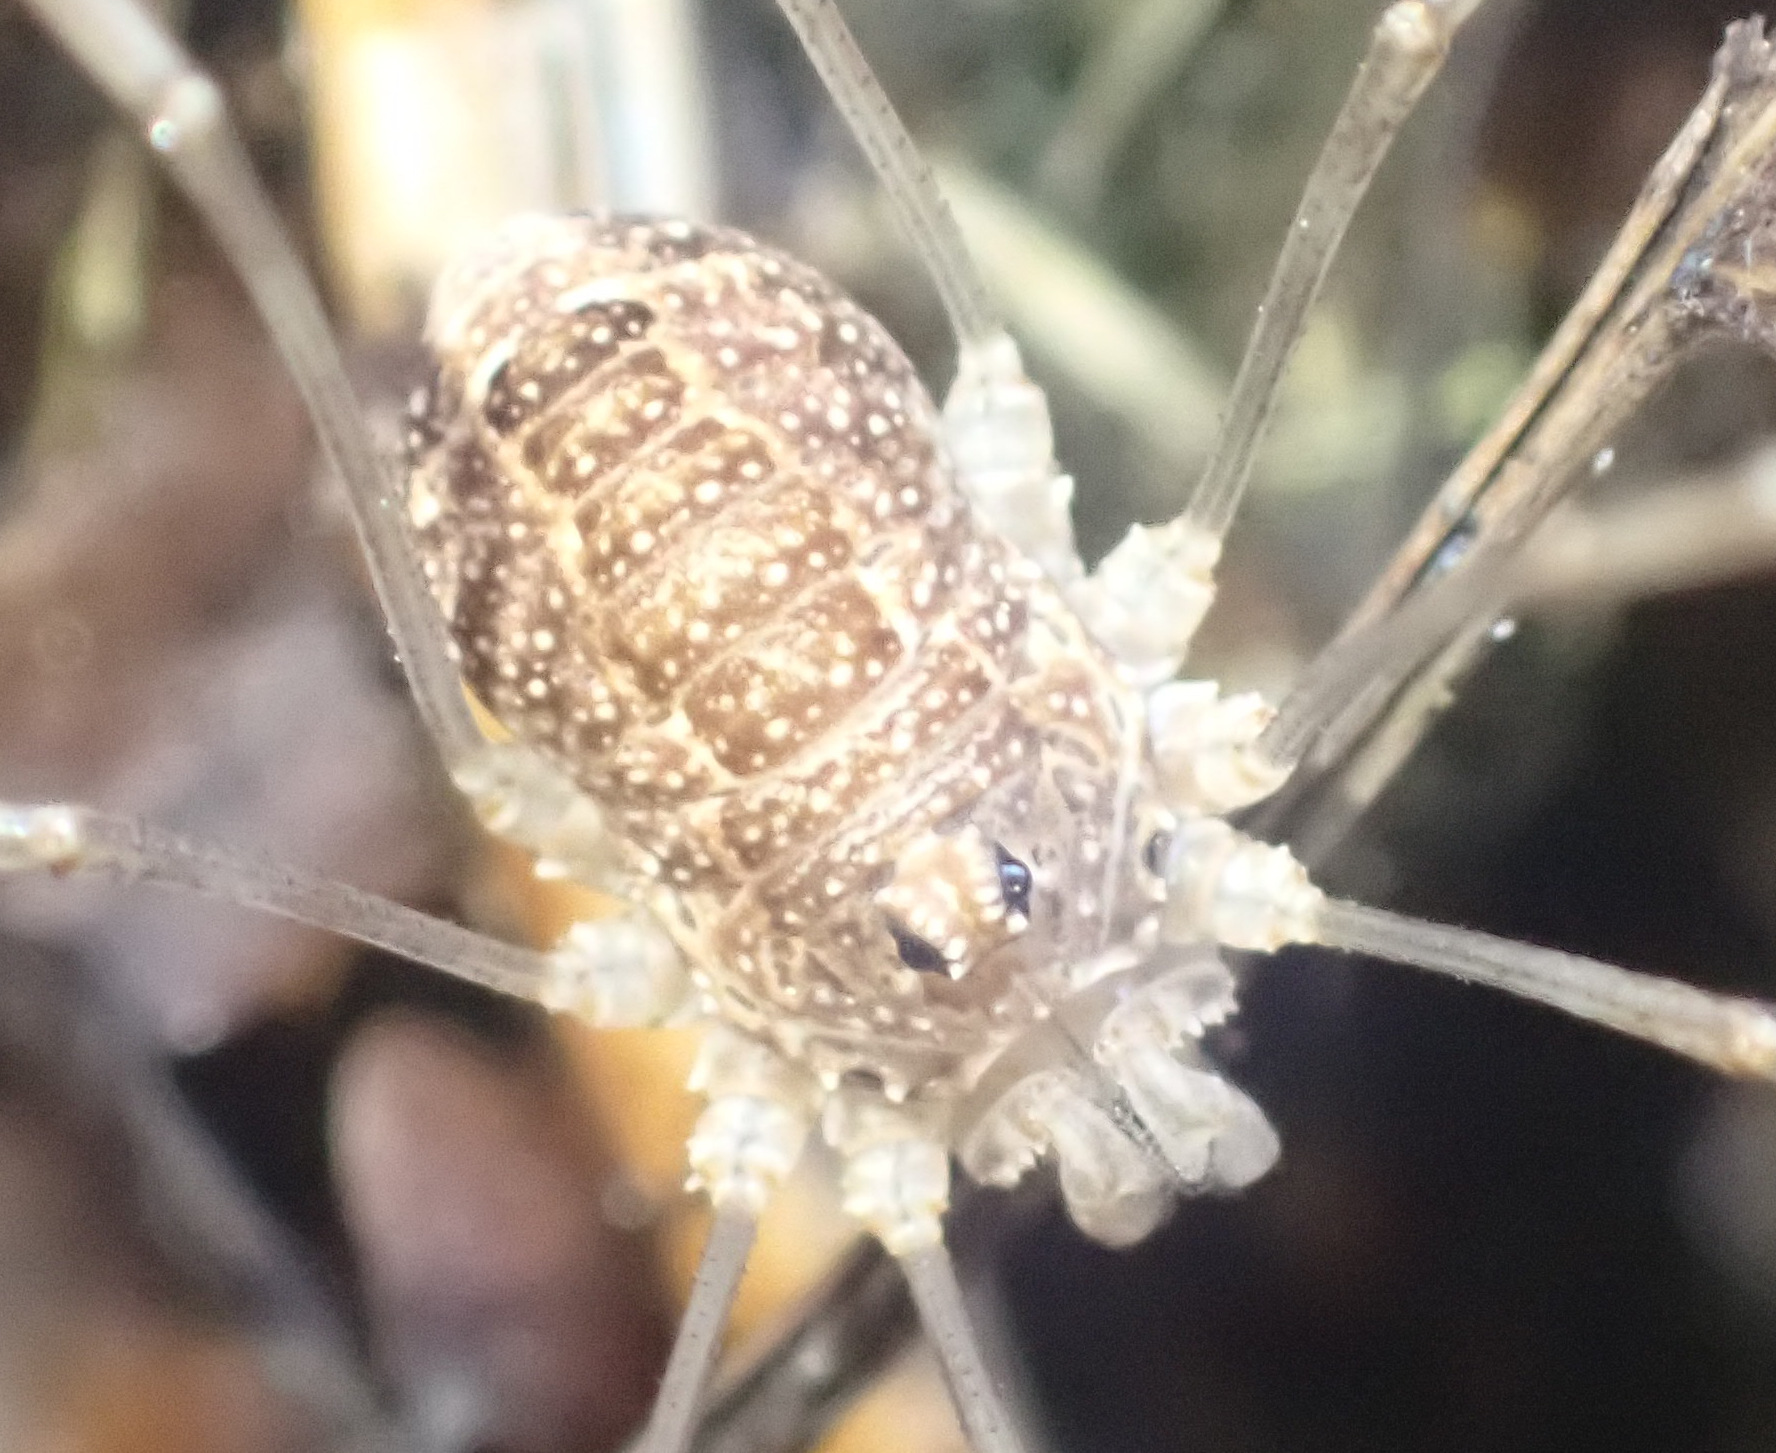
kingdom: Animalia
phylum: Arthropoda
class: Arachnida
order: Opiliones
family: Phalangiidae
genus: Rilaena
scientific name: Rilaena triangularis
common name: Spring harvestman
